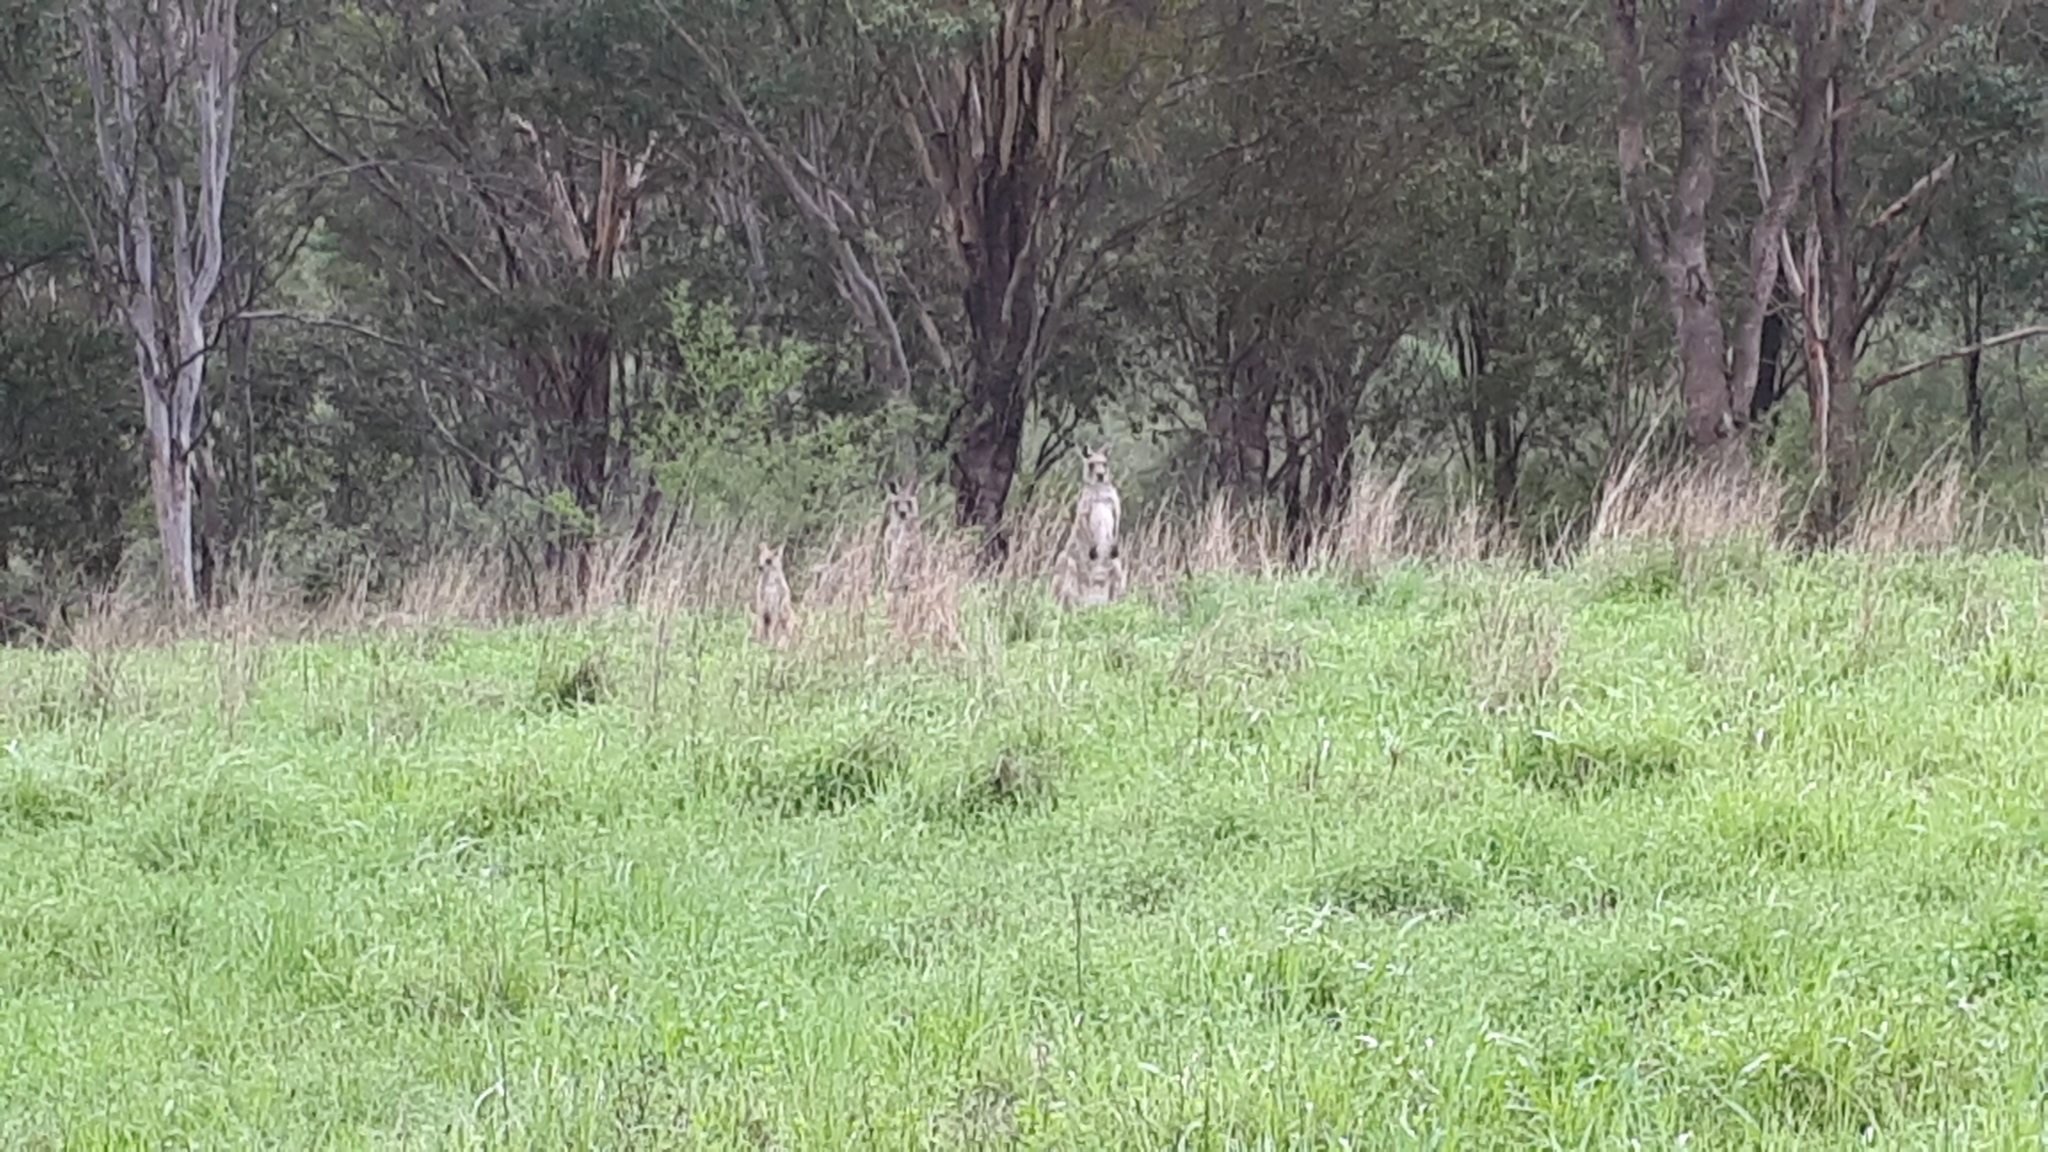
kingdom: Animalia
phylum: Chordata
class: Mammalia
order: Diprotodontia
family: Macropodidae
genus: Macropus
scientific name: Macropus giganteus
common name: Eastern grey kangaroo
